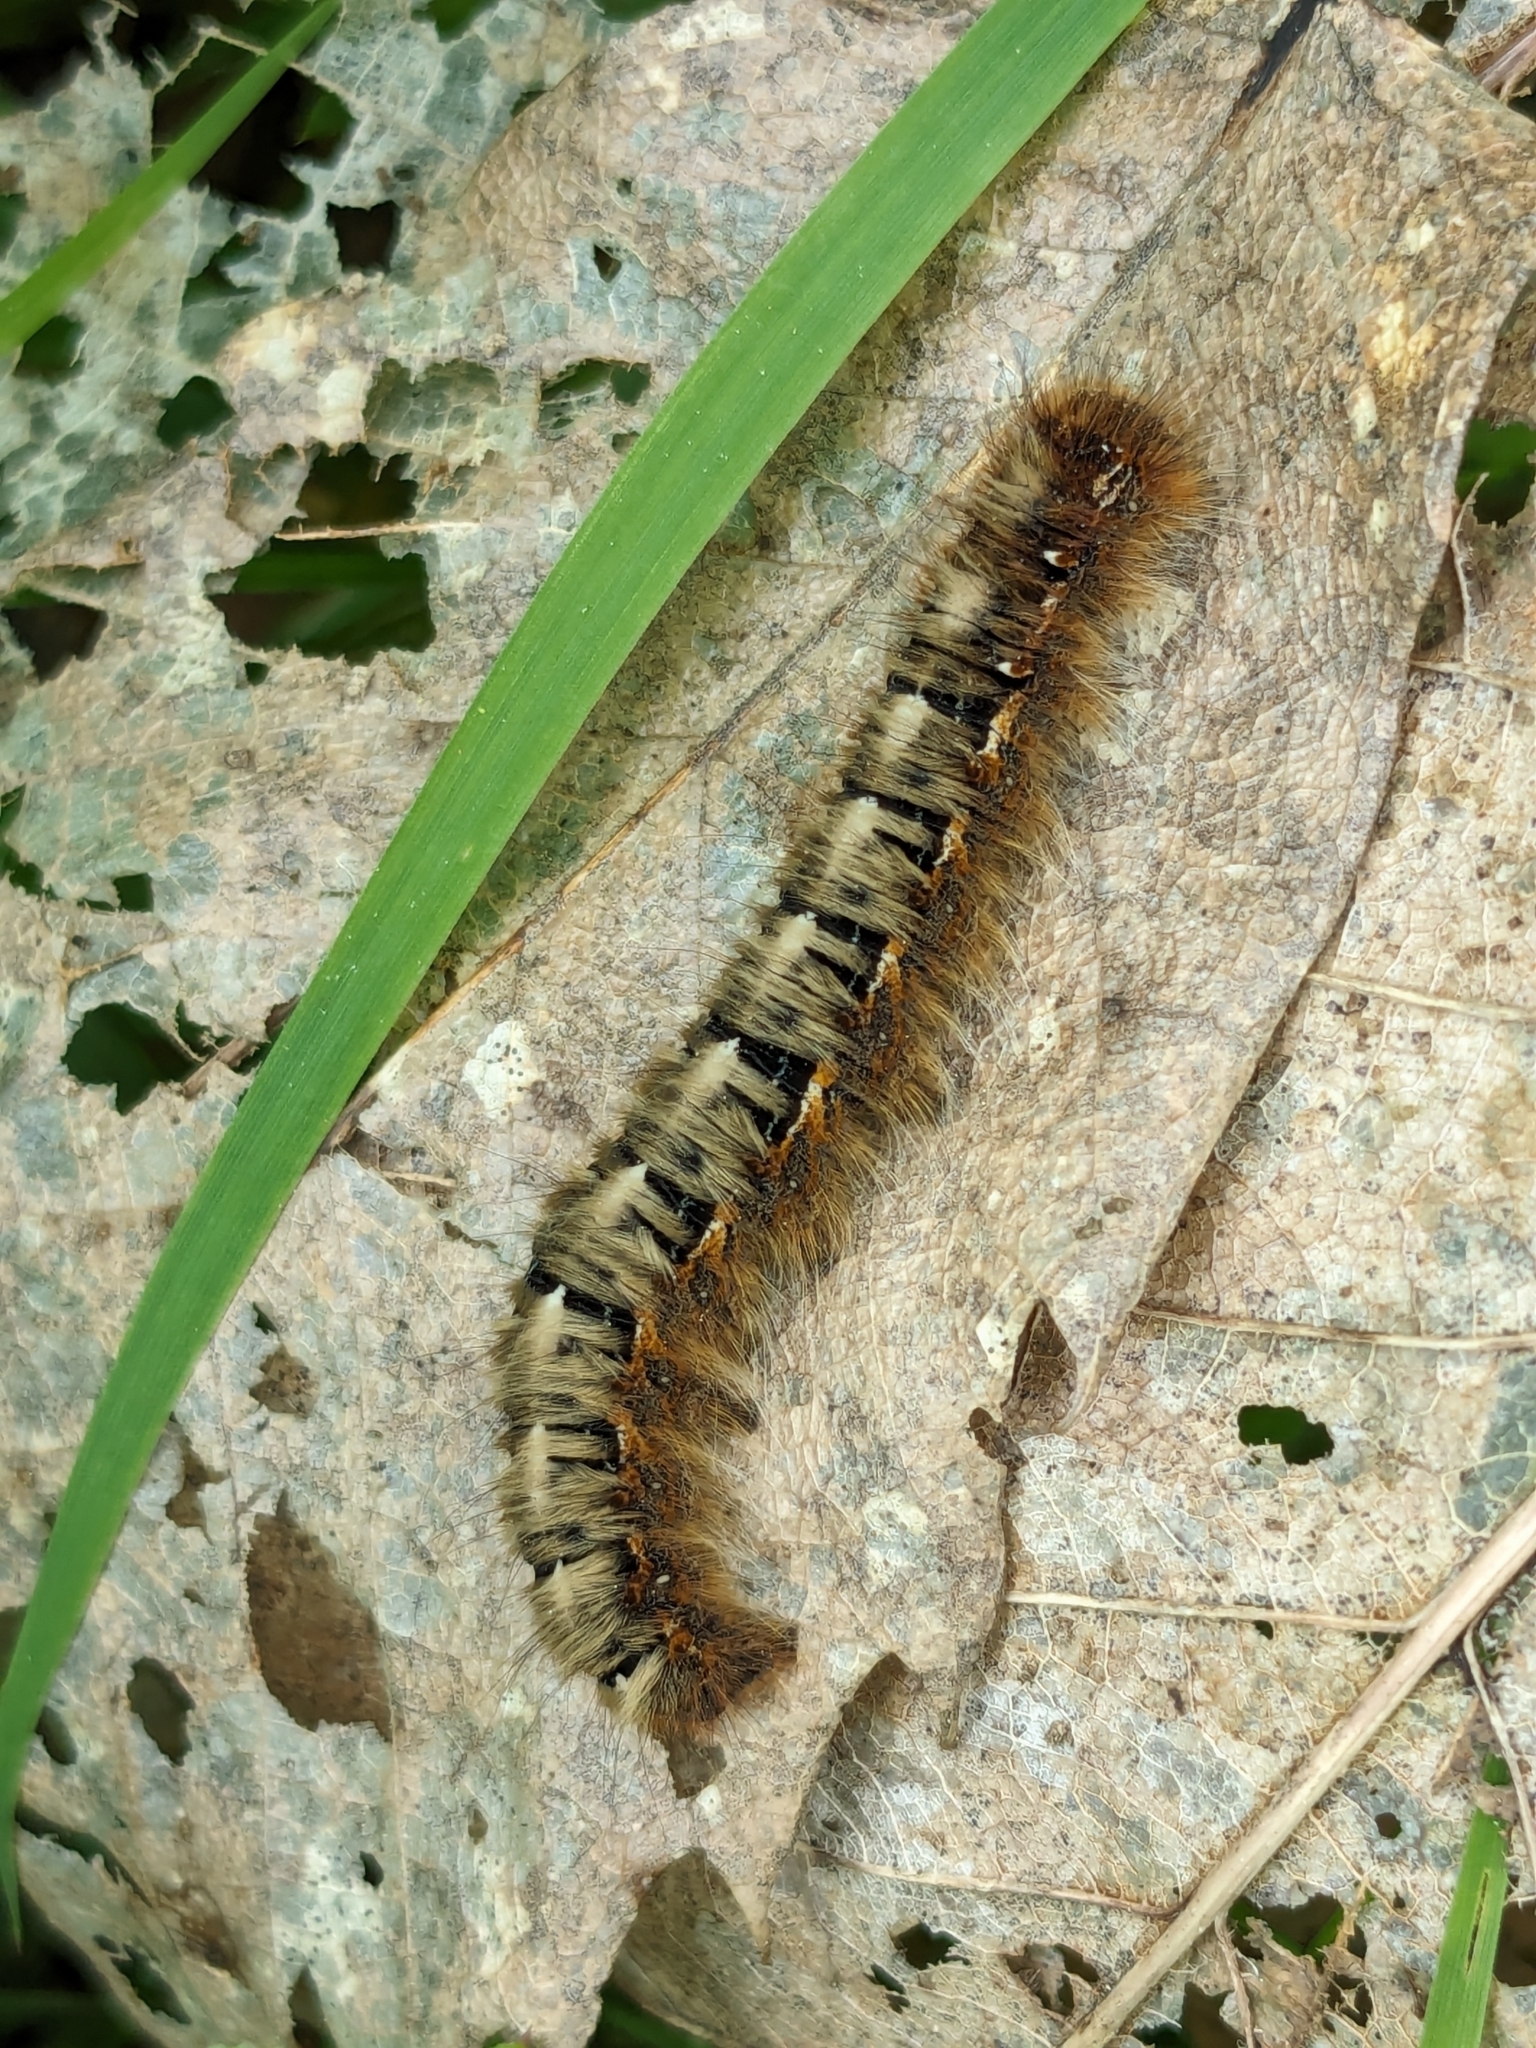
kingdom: Animalia
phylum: Arthropoda
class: Insecta
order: Lepidoptera
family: Lasiocampidae
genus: Lasiocampa
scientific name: Lasiocampa quercus
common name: Oak eggar
